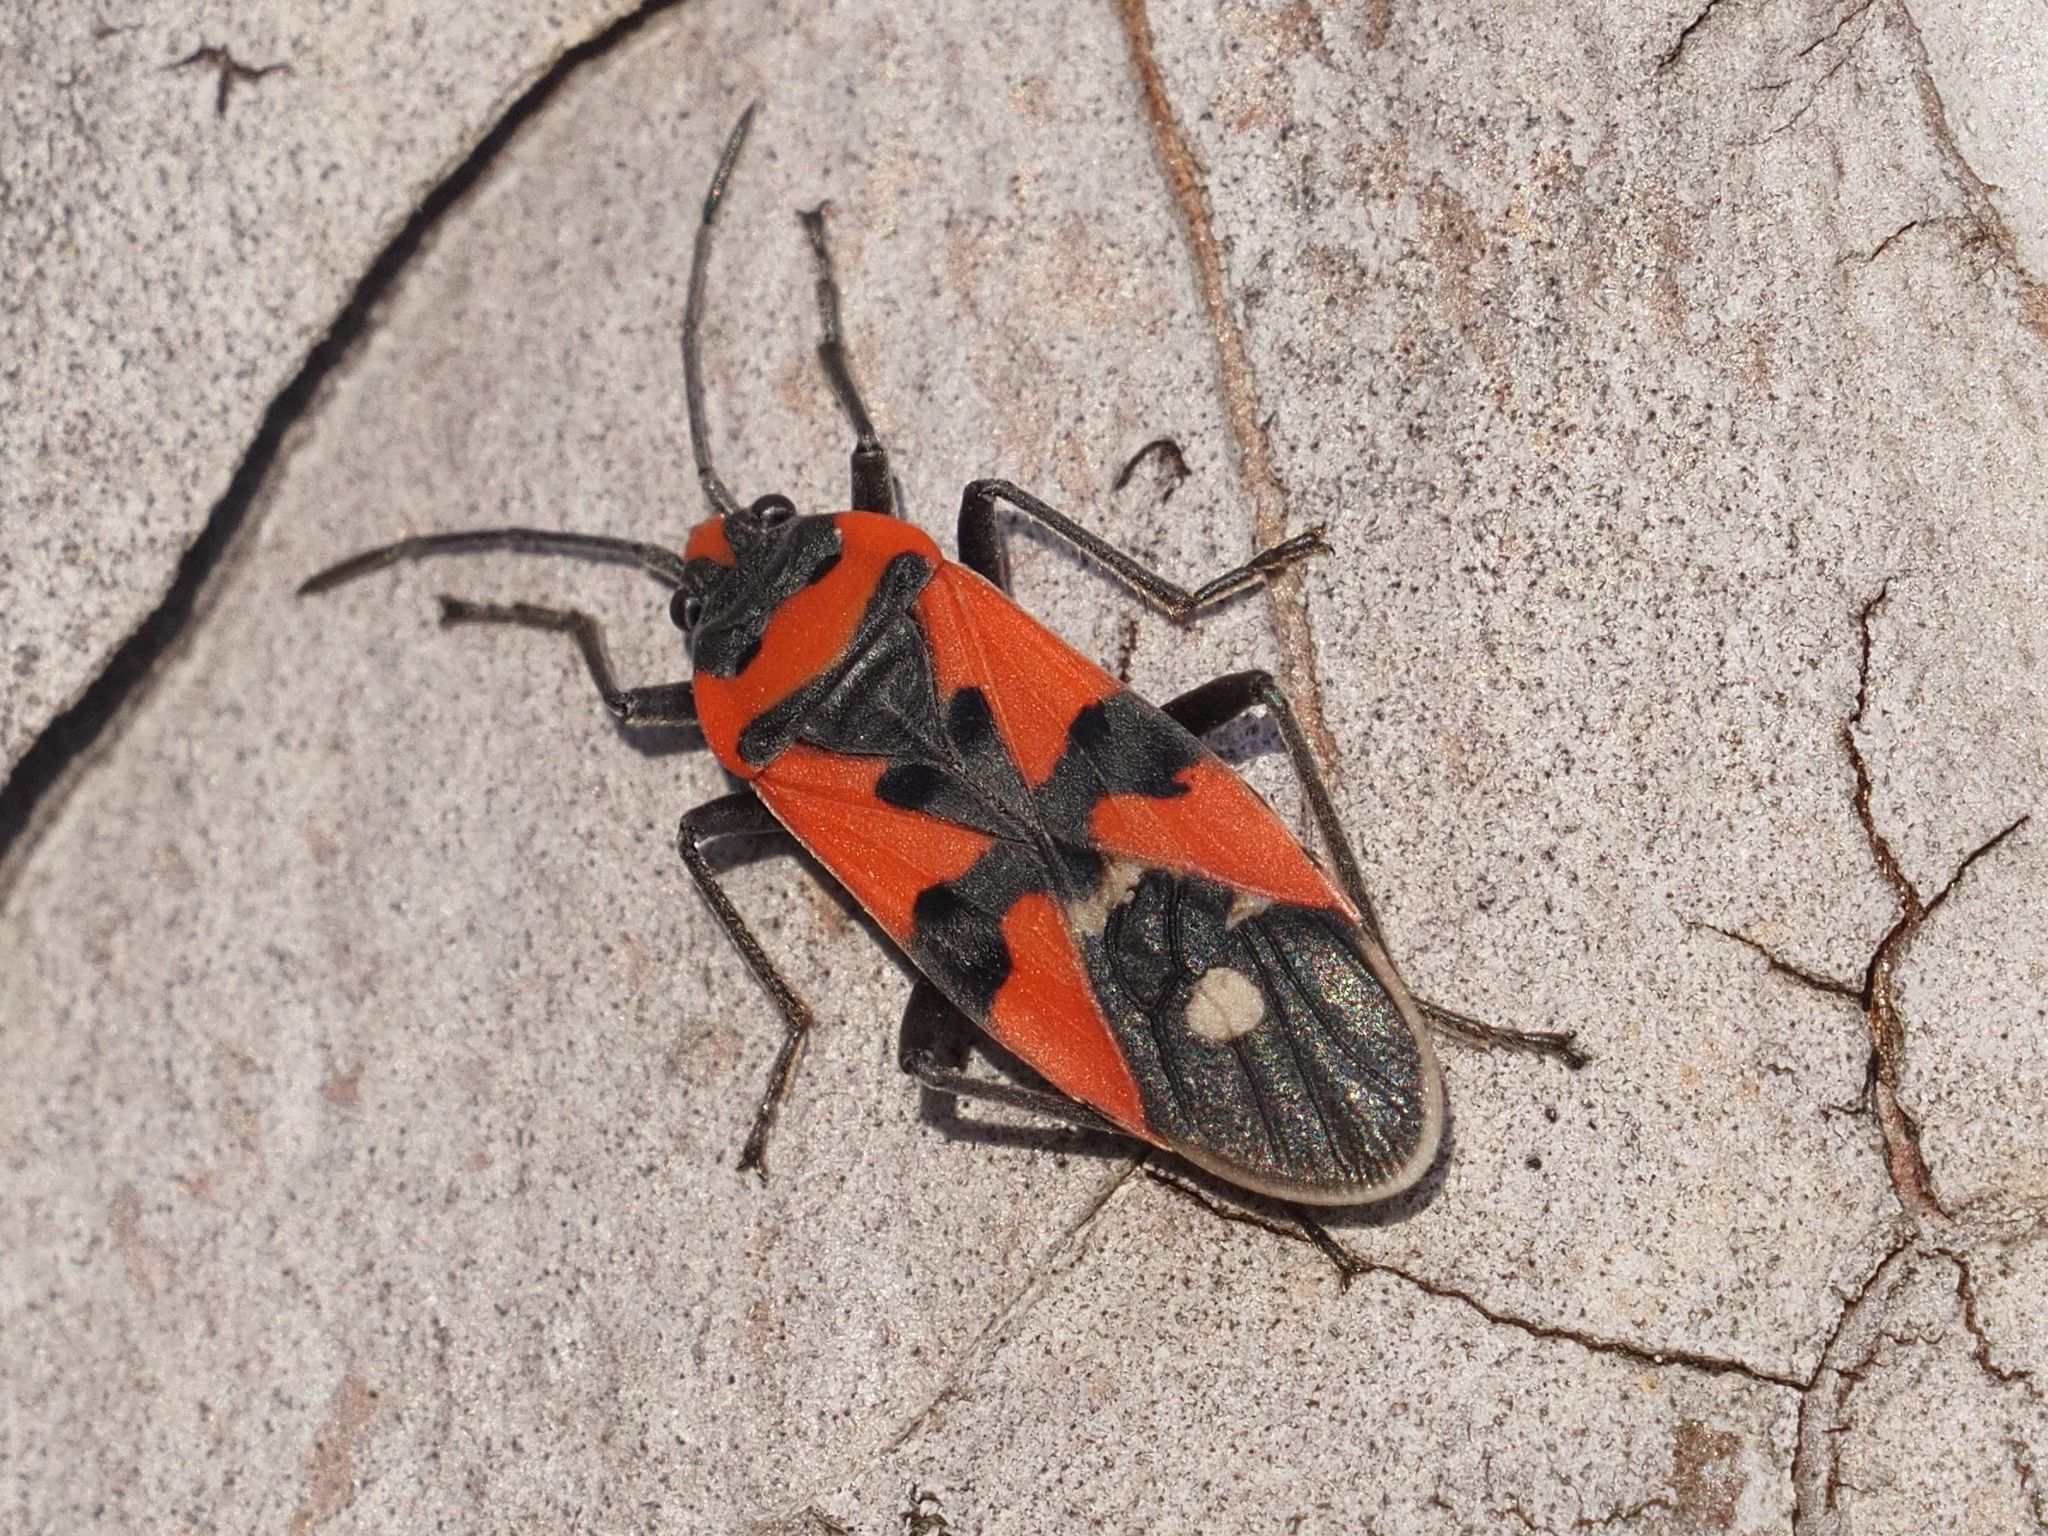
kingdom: Animalia
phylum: Arthropoda
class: Insecta
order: Hemiptera
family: Lygaeidae
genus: Lygaeus
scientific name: Lygaeus equestris
